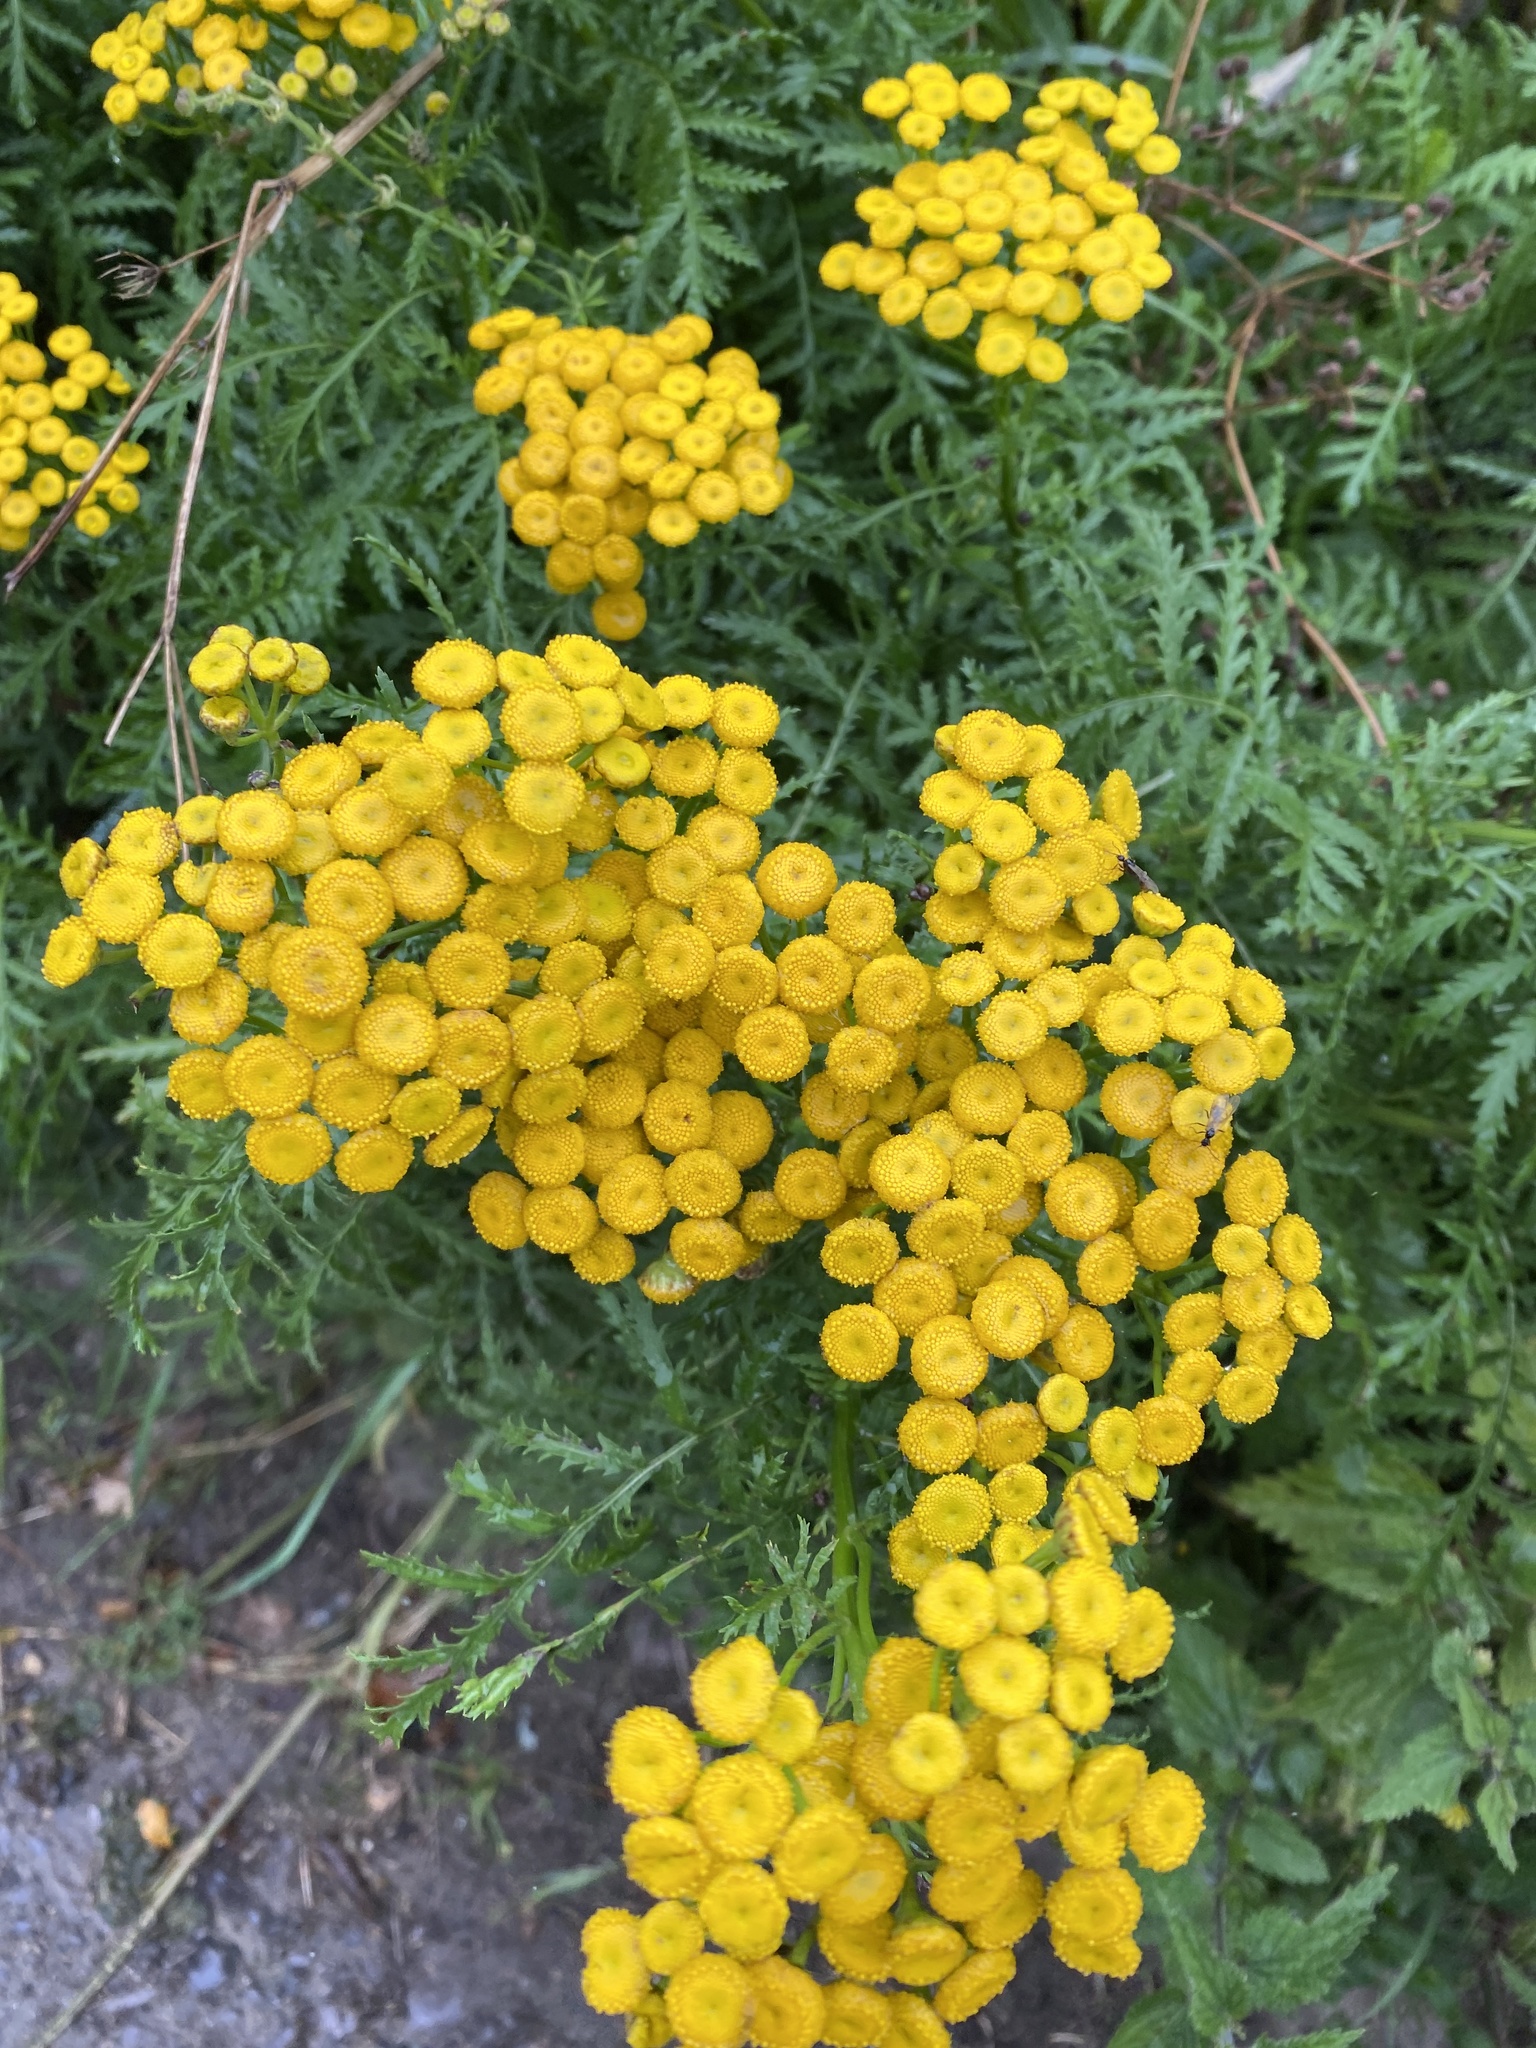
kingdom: Plantae
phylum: Tracheophyta
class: Magnoliopsida
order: Asterales
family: Asteraceae
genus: Tanacetum
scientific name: Tanacetum vulgare
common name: Common tansy
